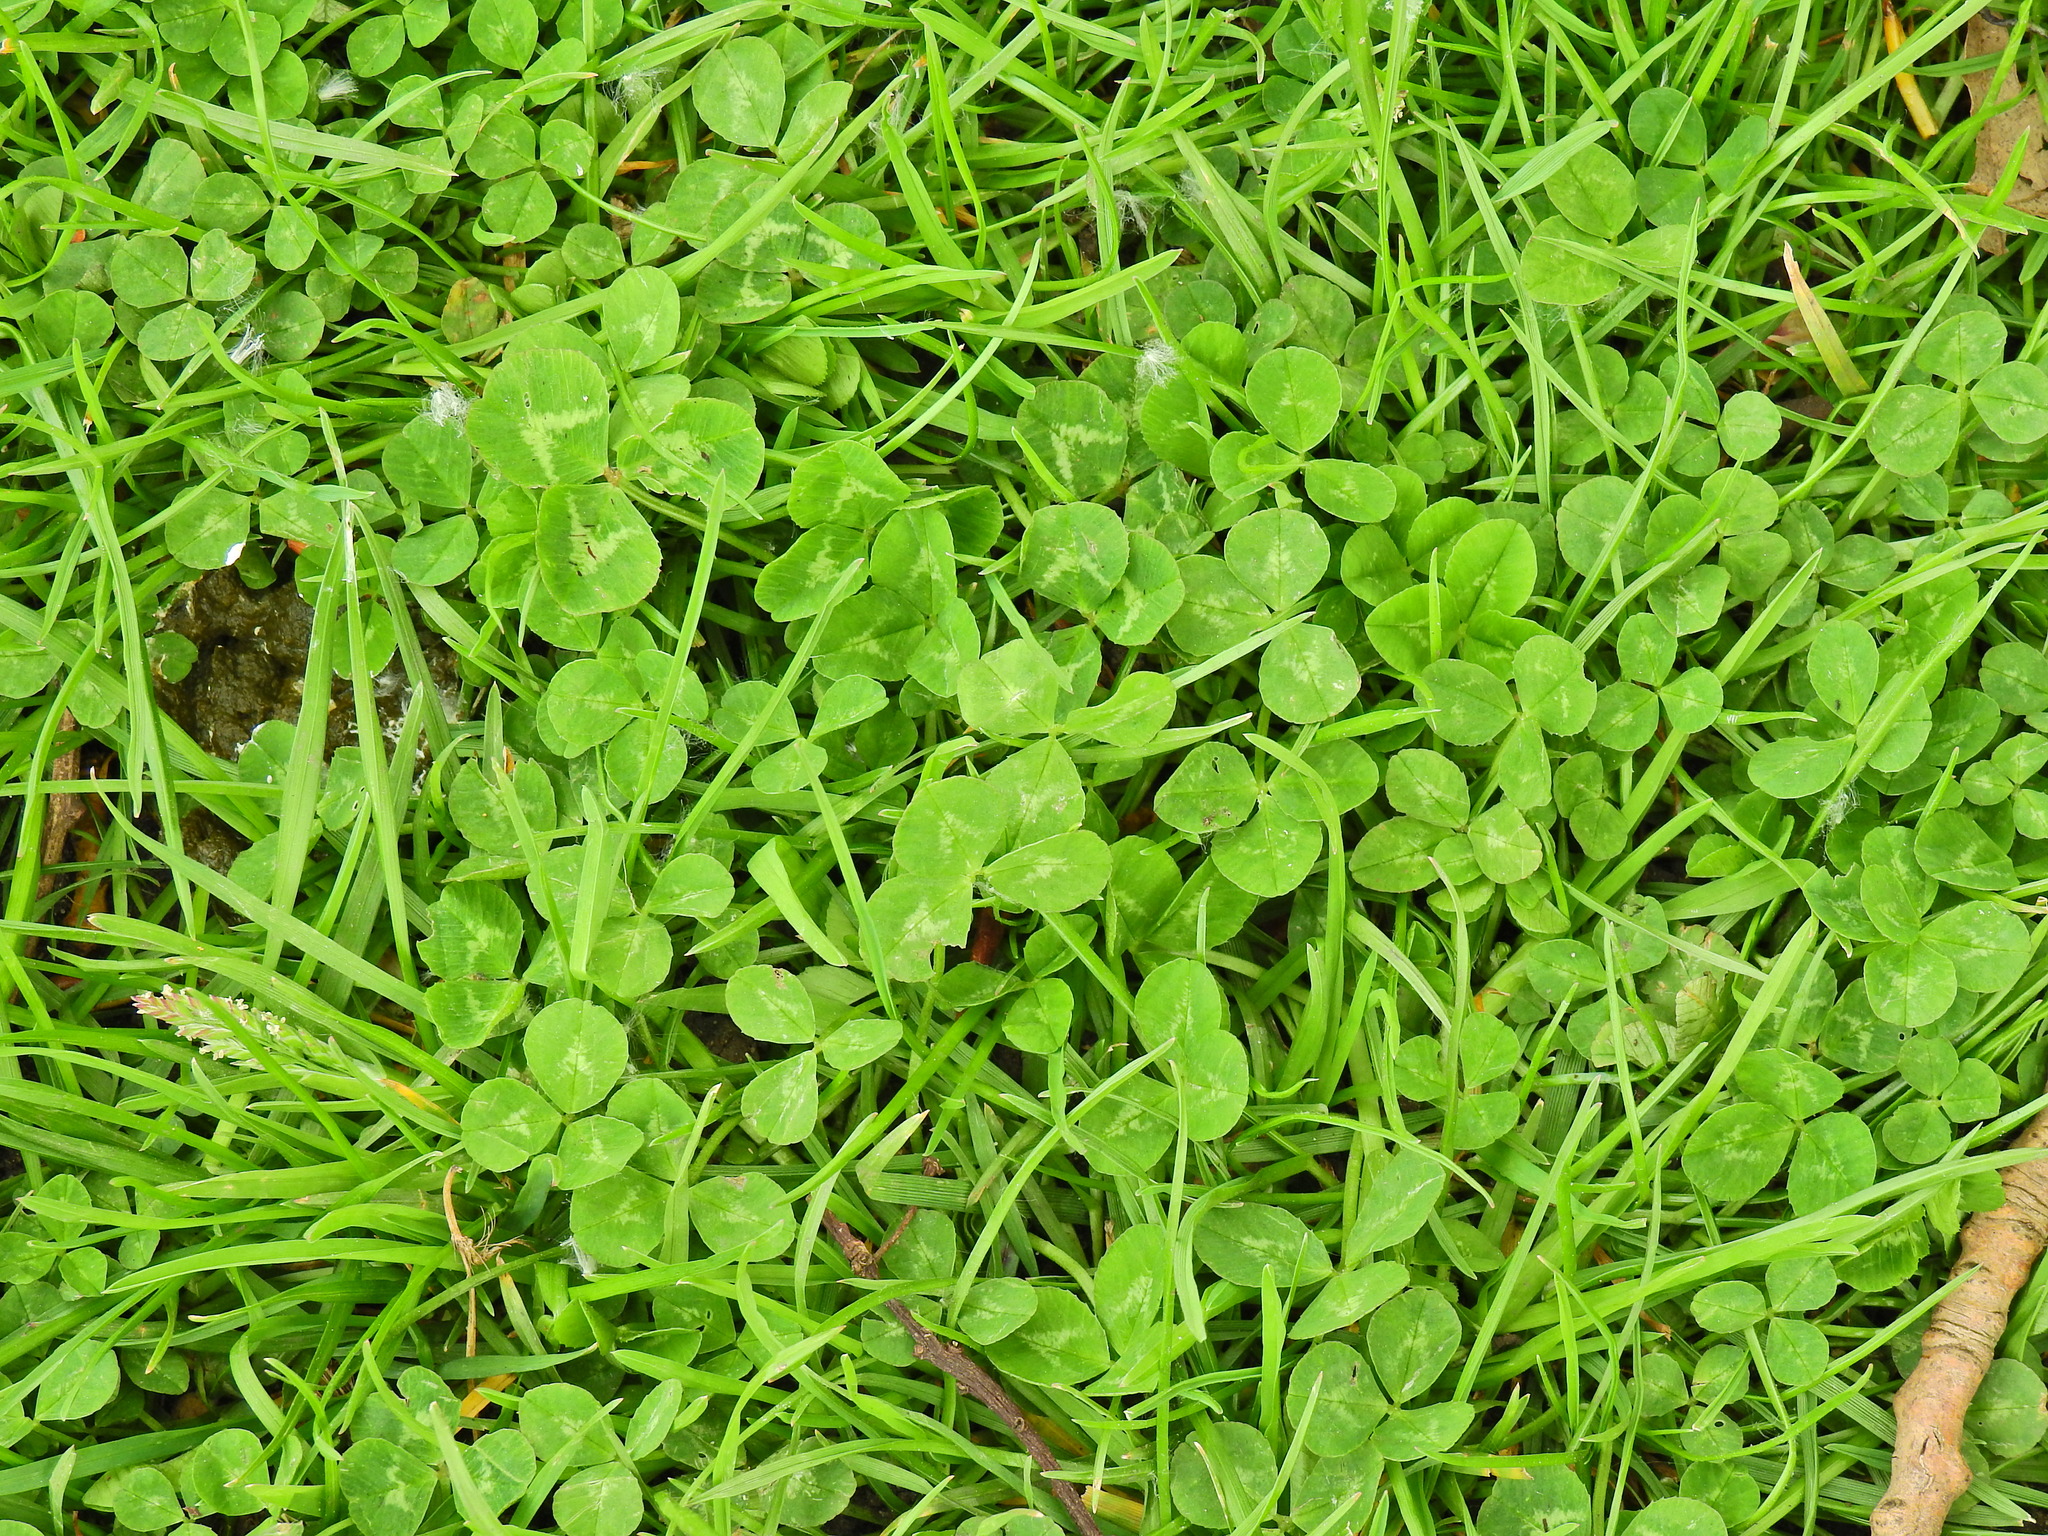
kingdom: Plantae
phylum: Tracheophyta
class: Magnoliopsida
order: Fabales
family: Fabaceae
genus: Trifolium
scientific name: Trifolium repens
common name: White clover
